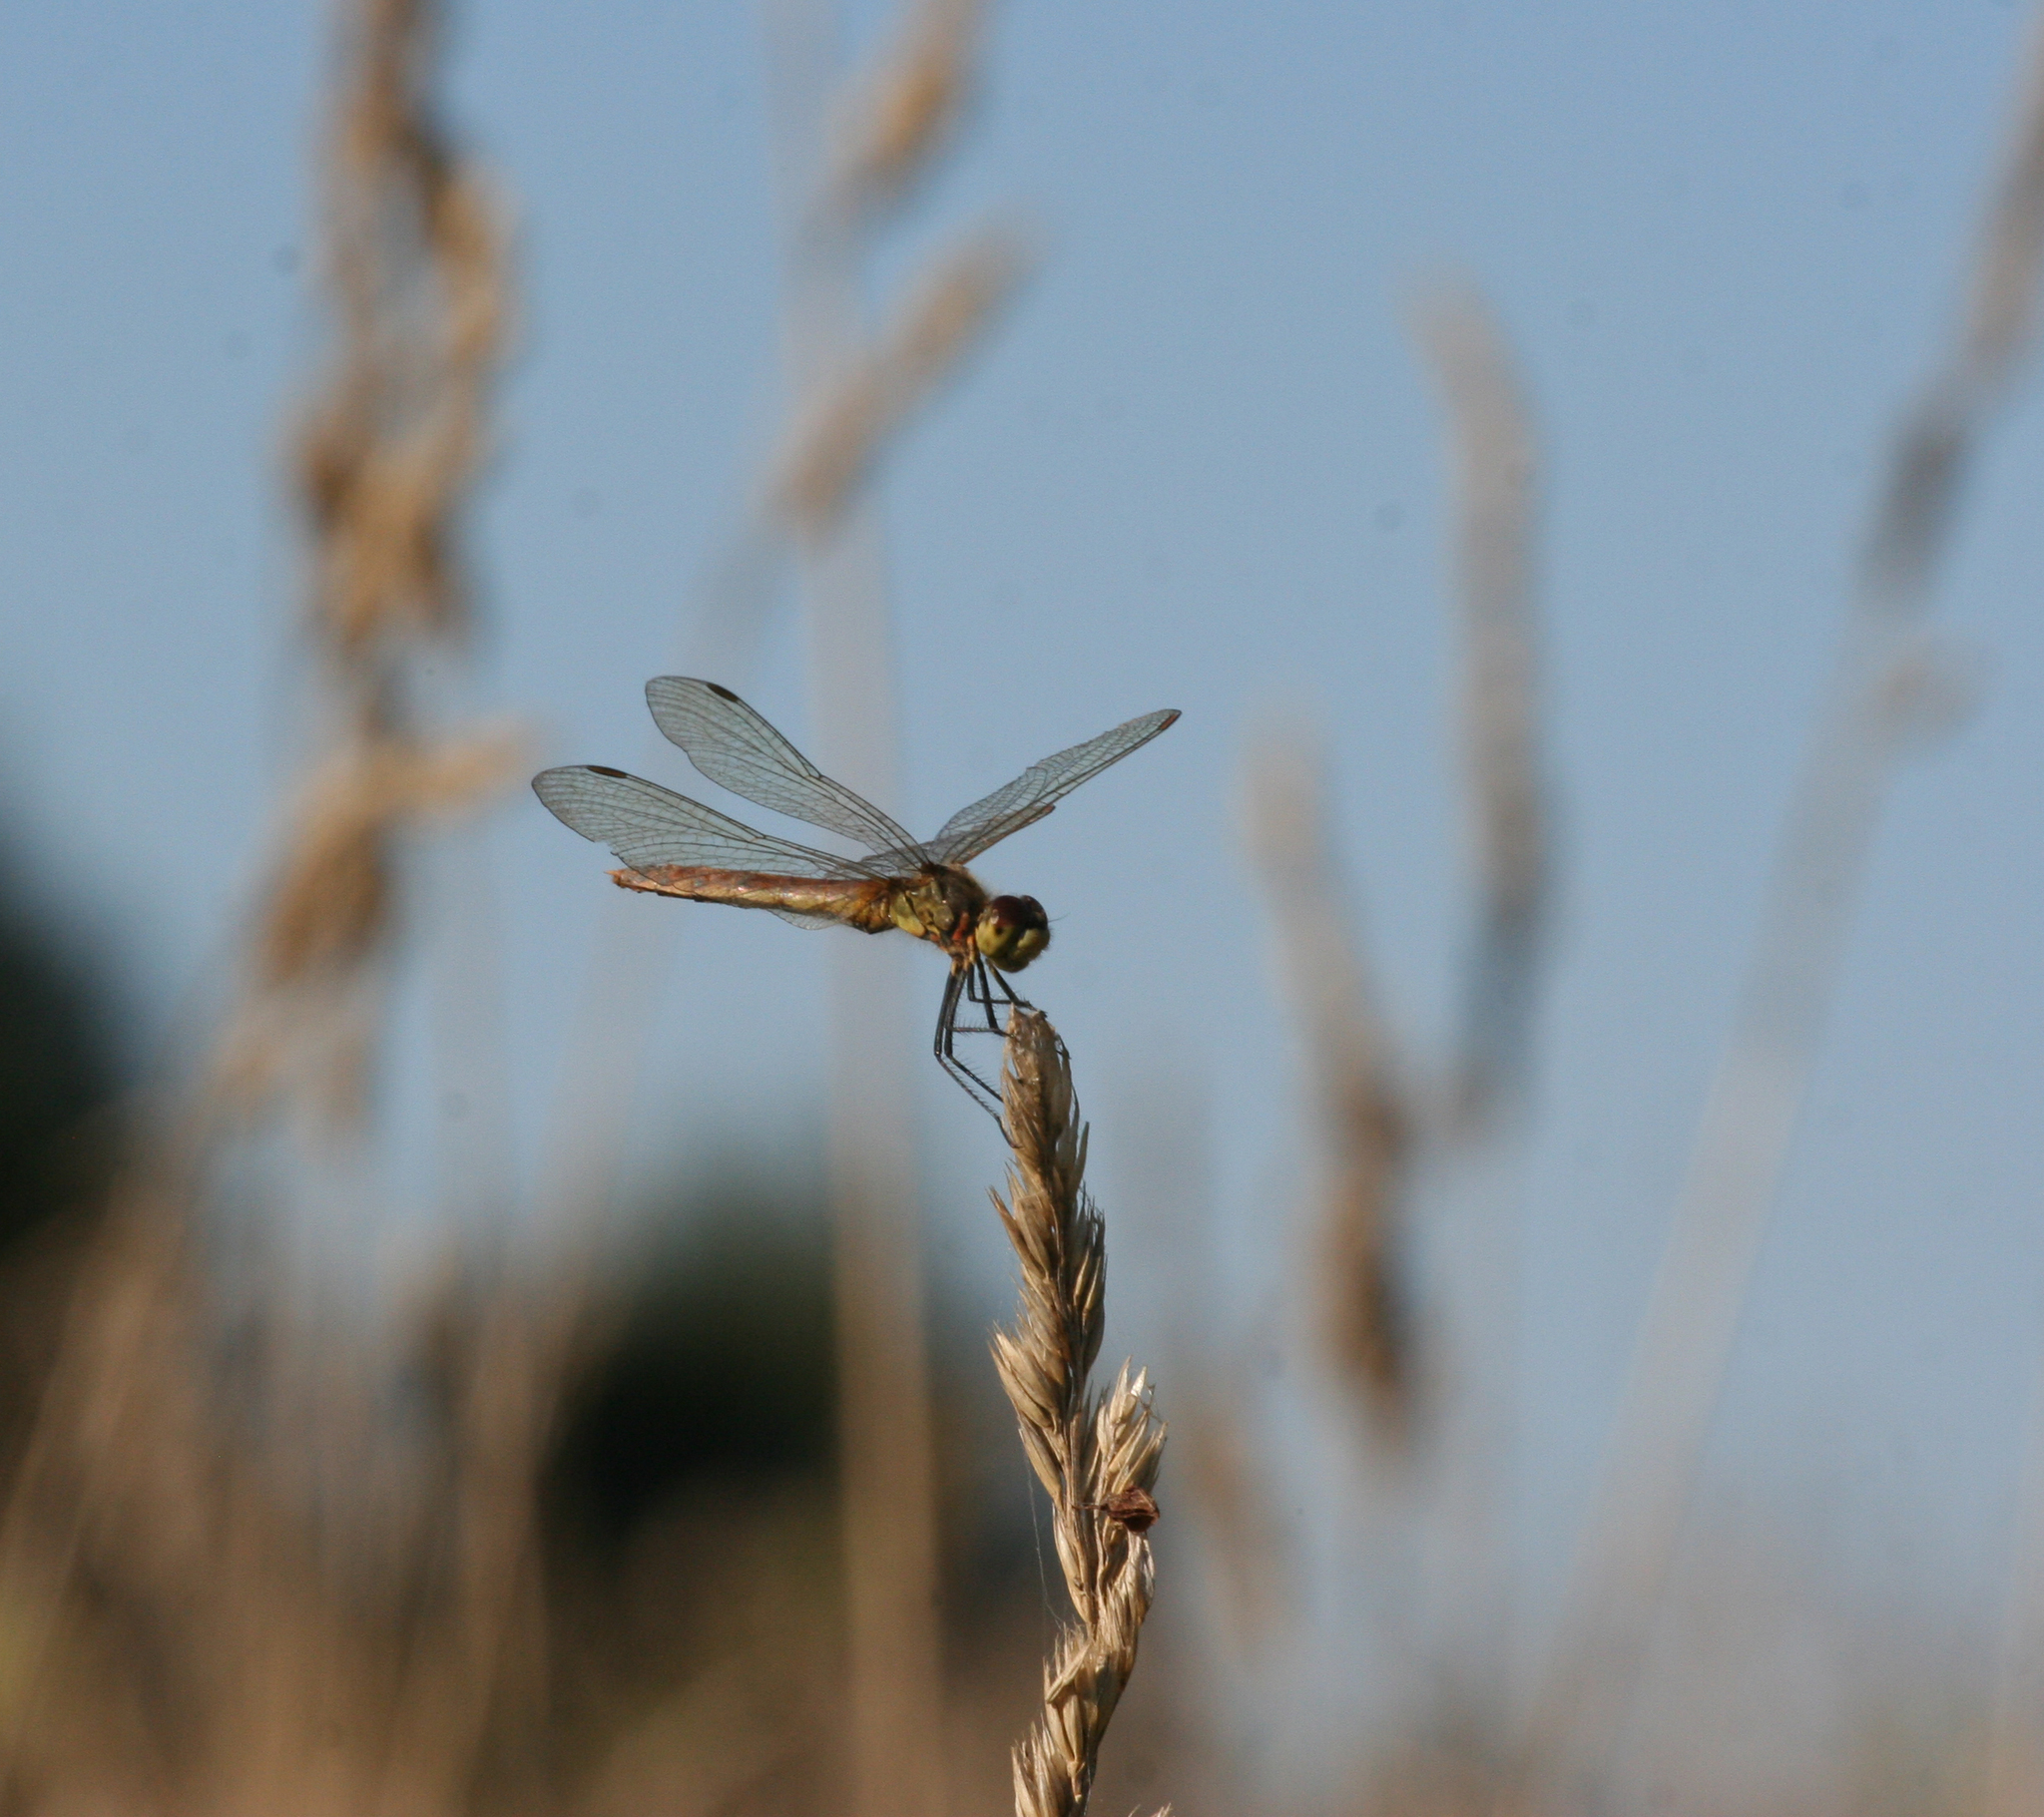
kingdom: Animalia
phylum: Arthropoda
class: Insecta
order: Odonata
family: Libellulidae
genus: Sympetrum
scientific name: Sympetrum depressiusculum
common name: Spotted darter
